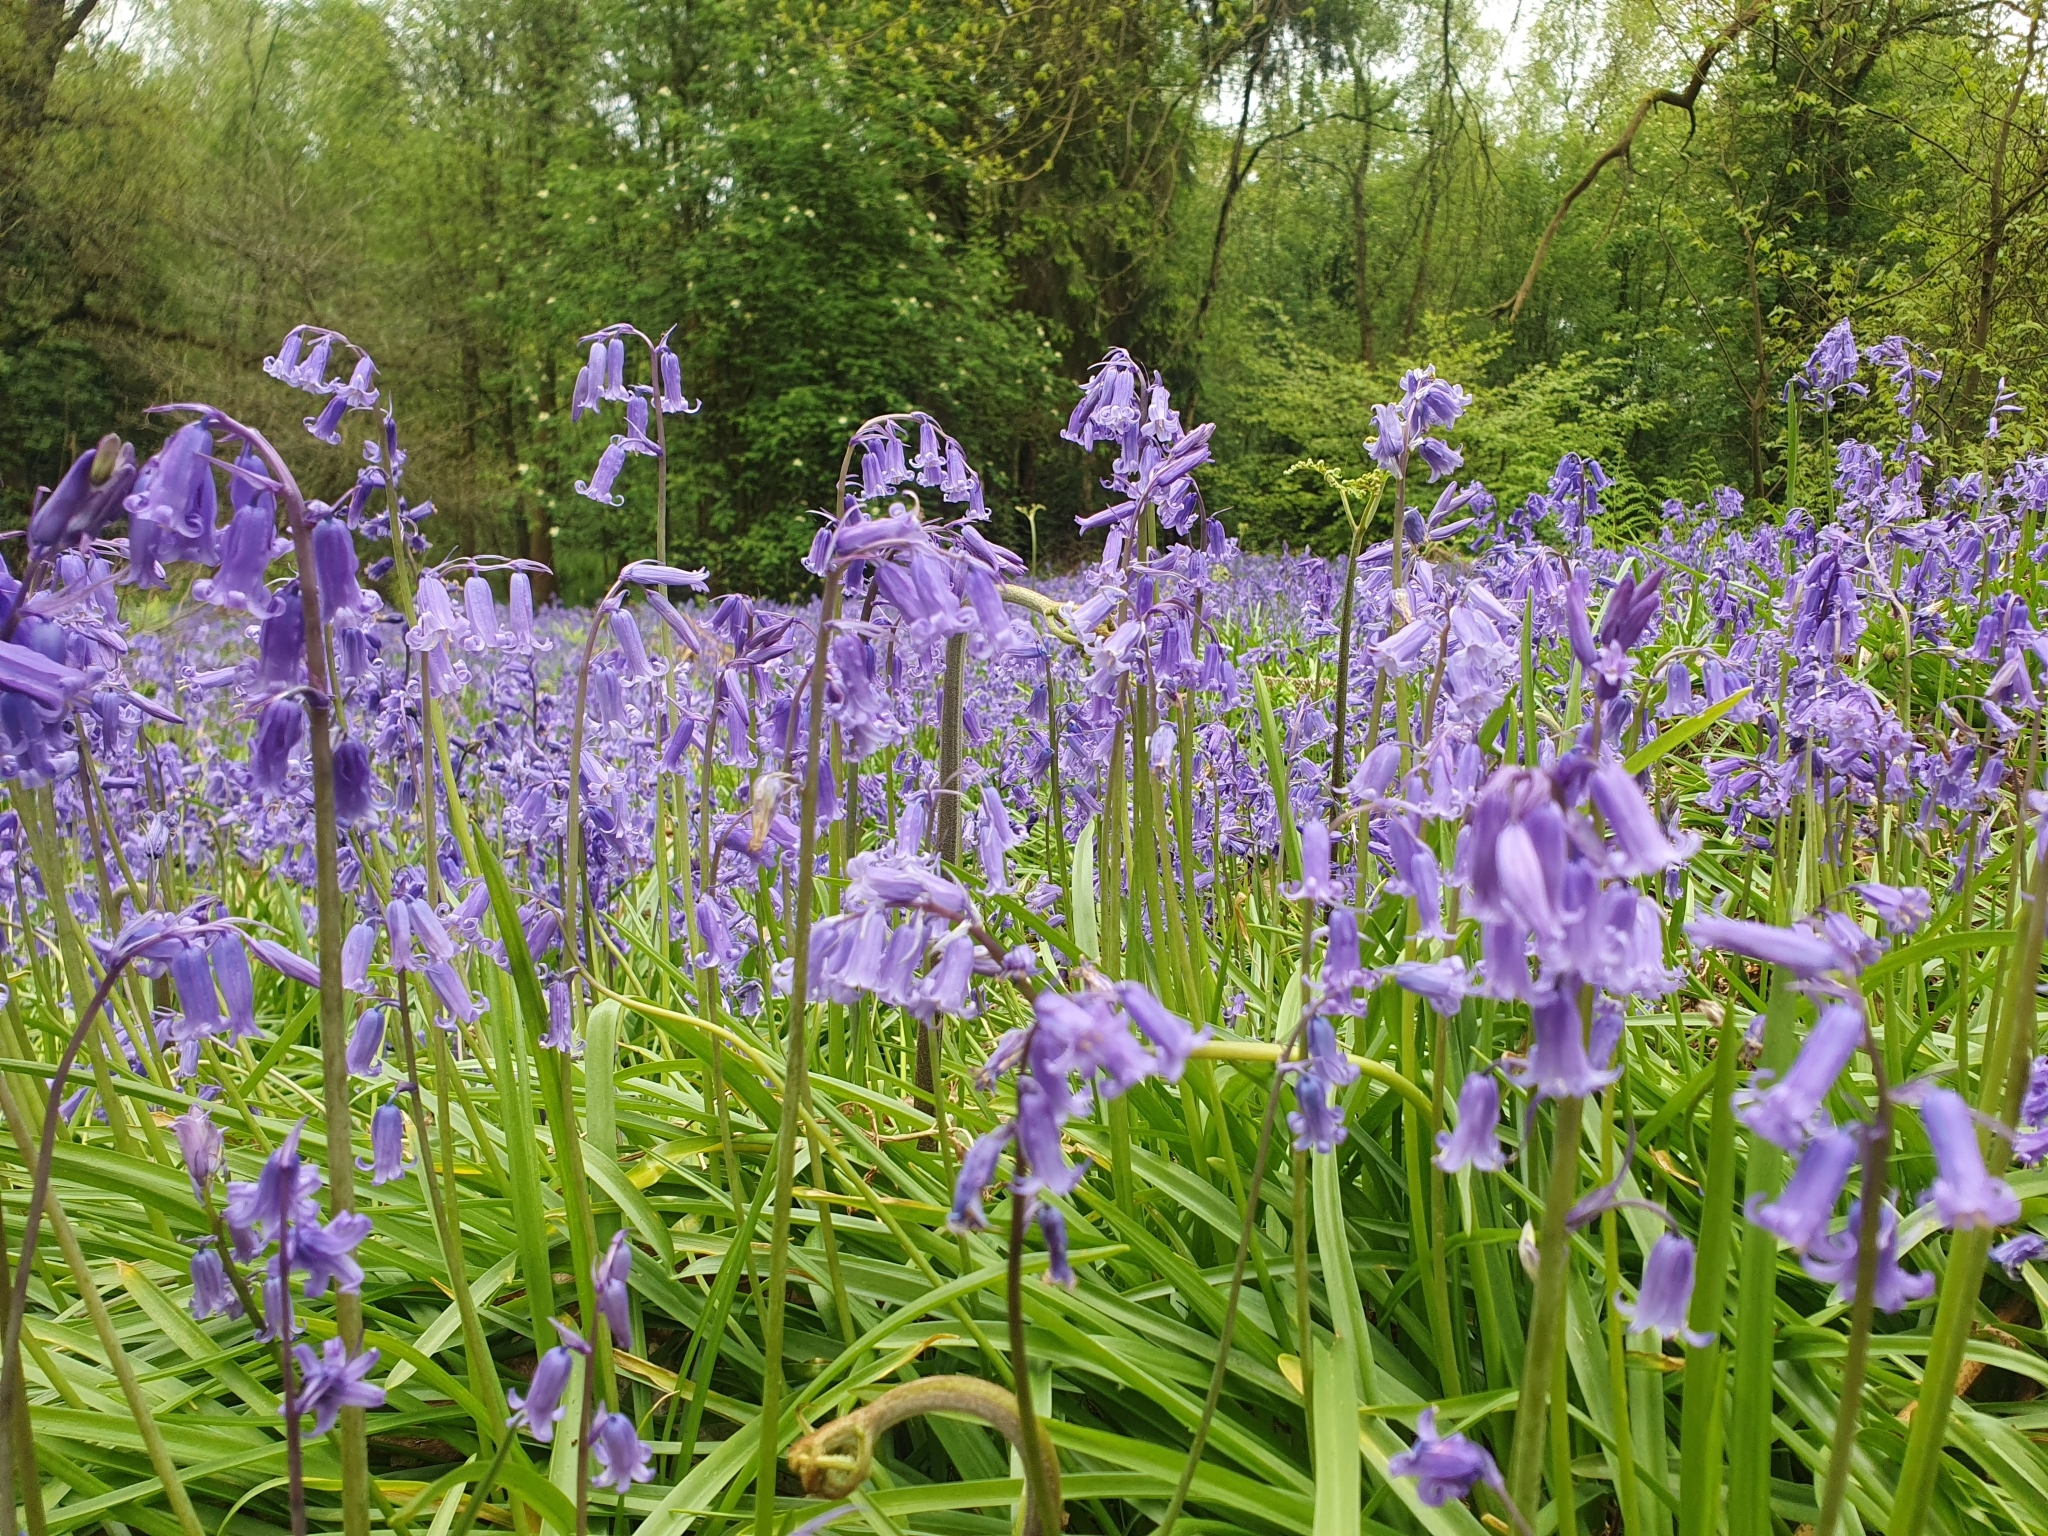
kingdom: Plantae
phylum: Tracheophyta
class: Liliopsida
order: Asparagales
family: Asparagaceae
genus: Hyacinthoides
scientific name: Hyacinthoides non-scripta
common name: Bluebell
